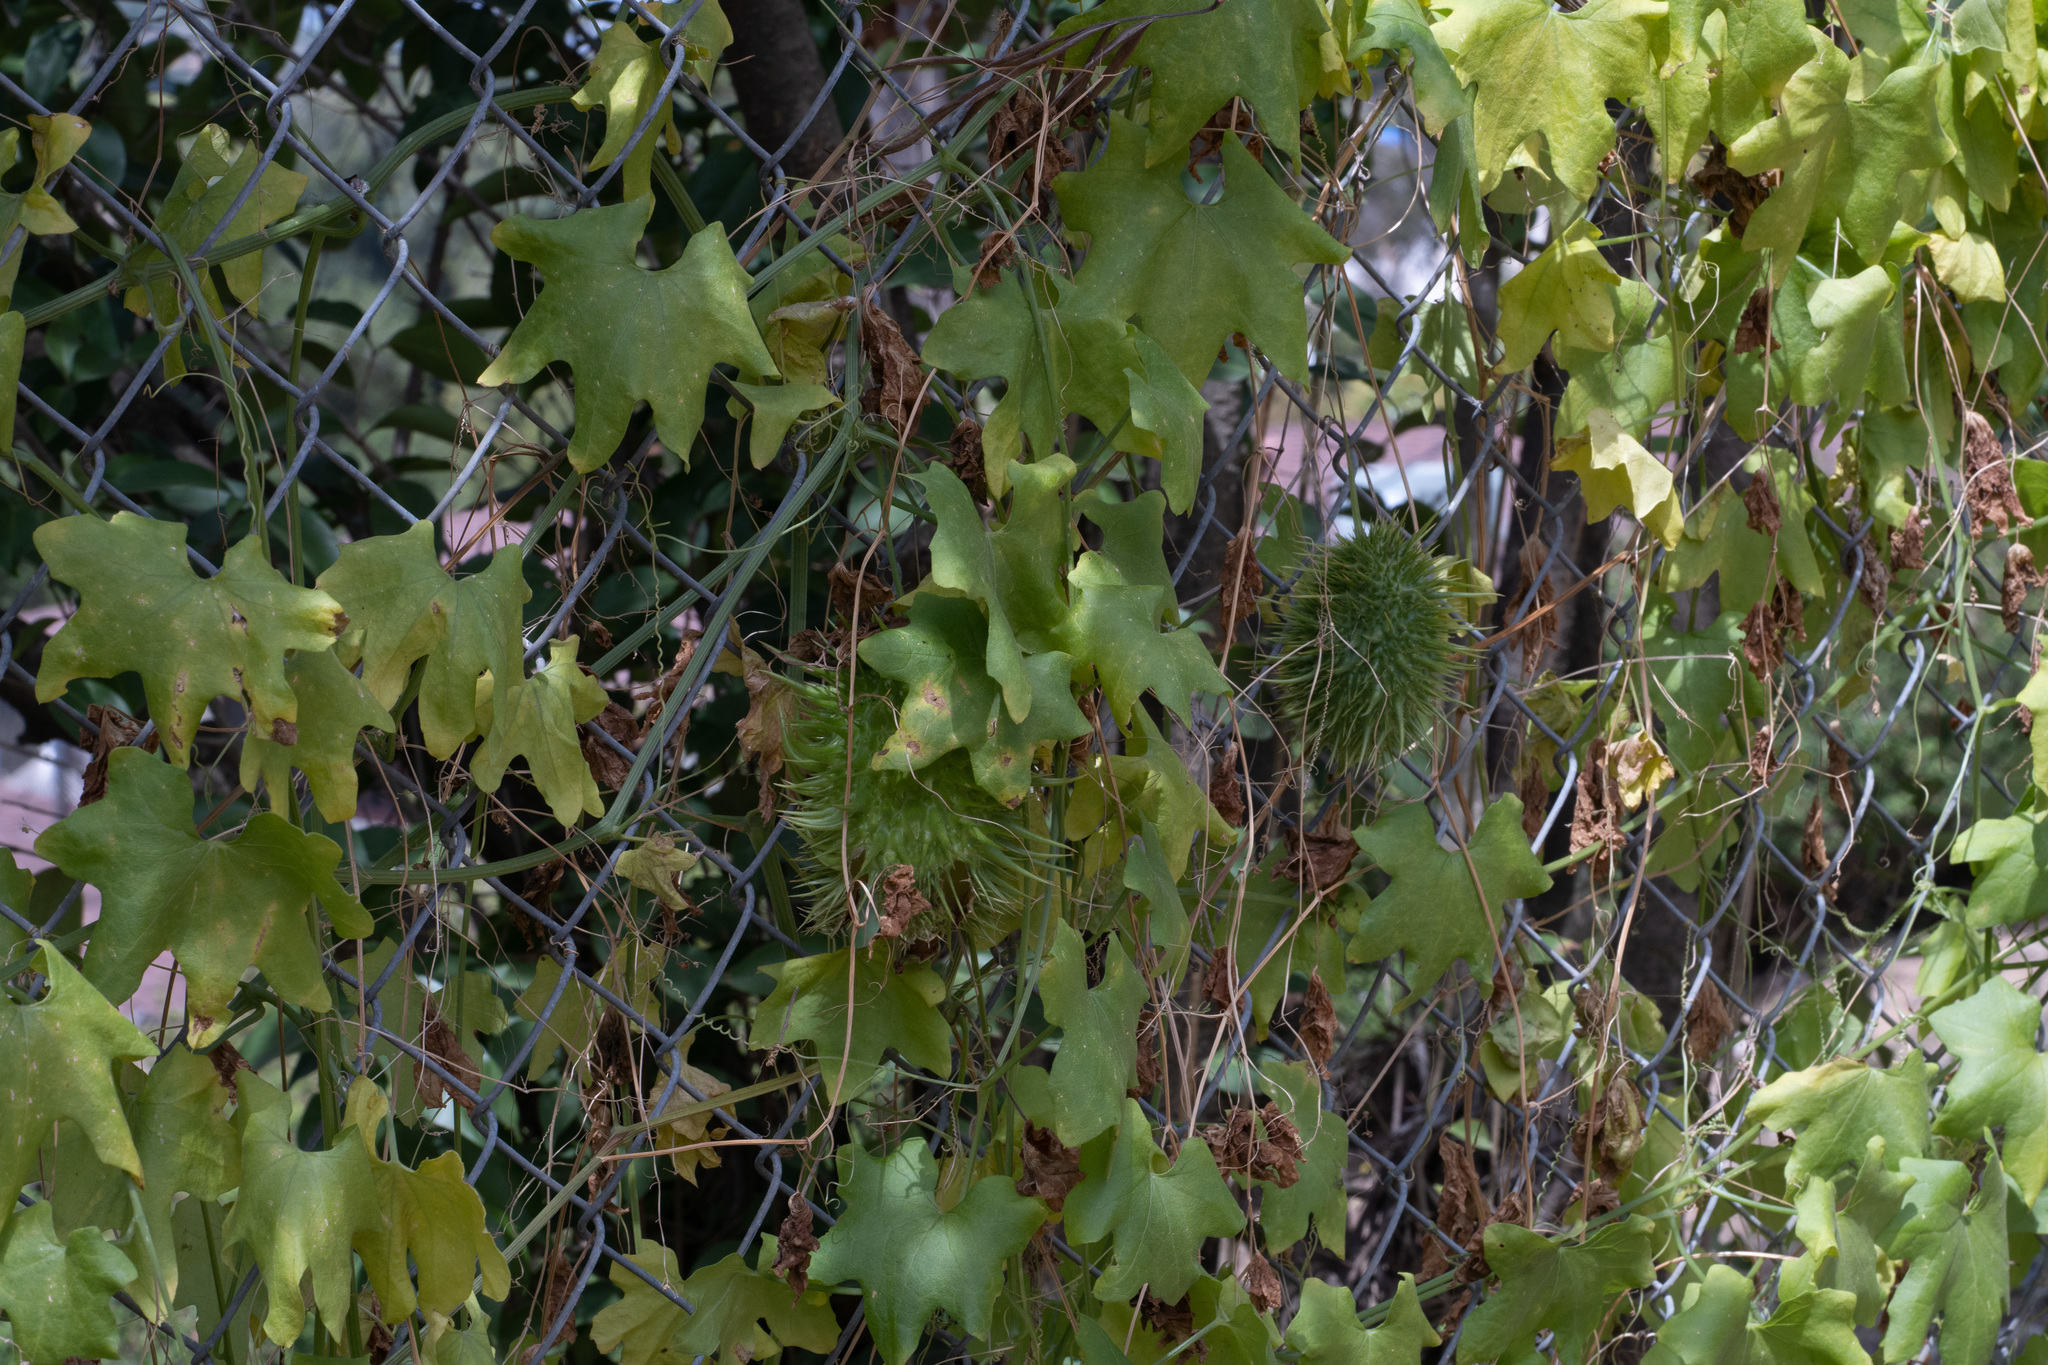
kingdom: Plantae
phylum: Tracheophyta
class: Magnoliopsida
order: Cucurbitales
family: Cucurbitaceae
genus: Marah
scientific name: Marah macrocarpa
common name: Cucamonga manroot
